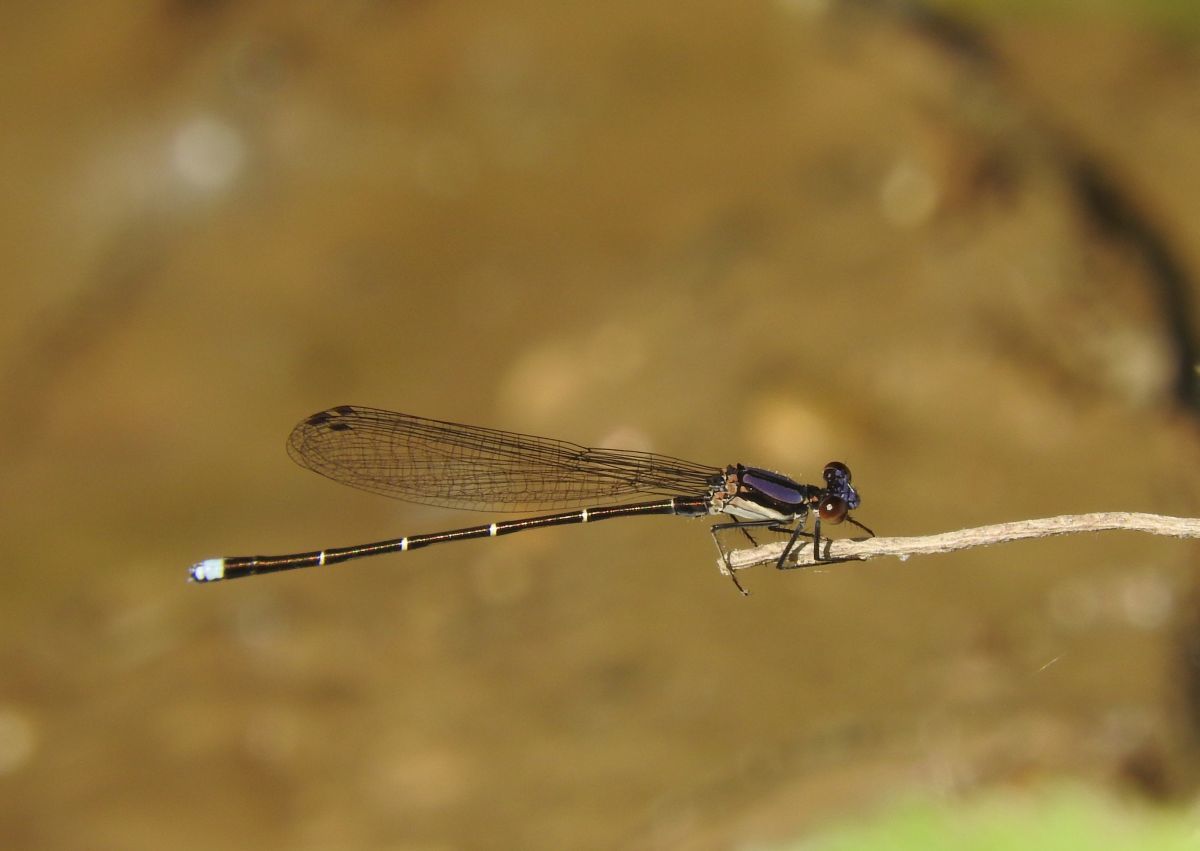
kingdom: Animalia
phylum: Arthropoda
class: Insecta
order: Odonata
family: Coenagrionidae
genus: Argia
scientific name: Argia tibialis
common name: Blue-tipped dancer
